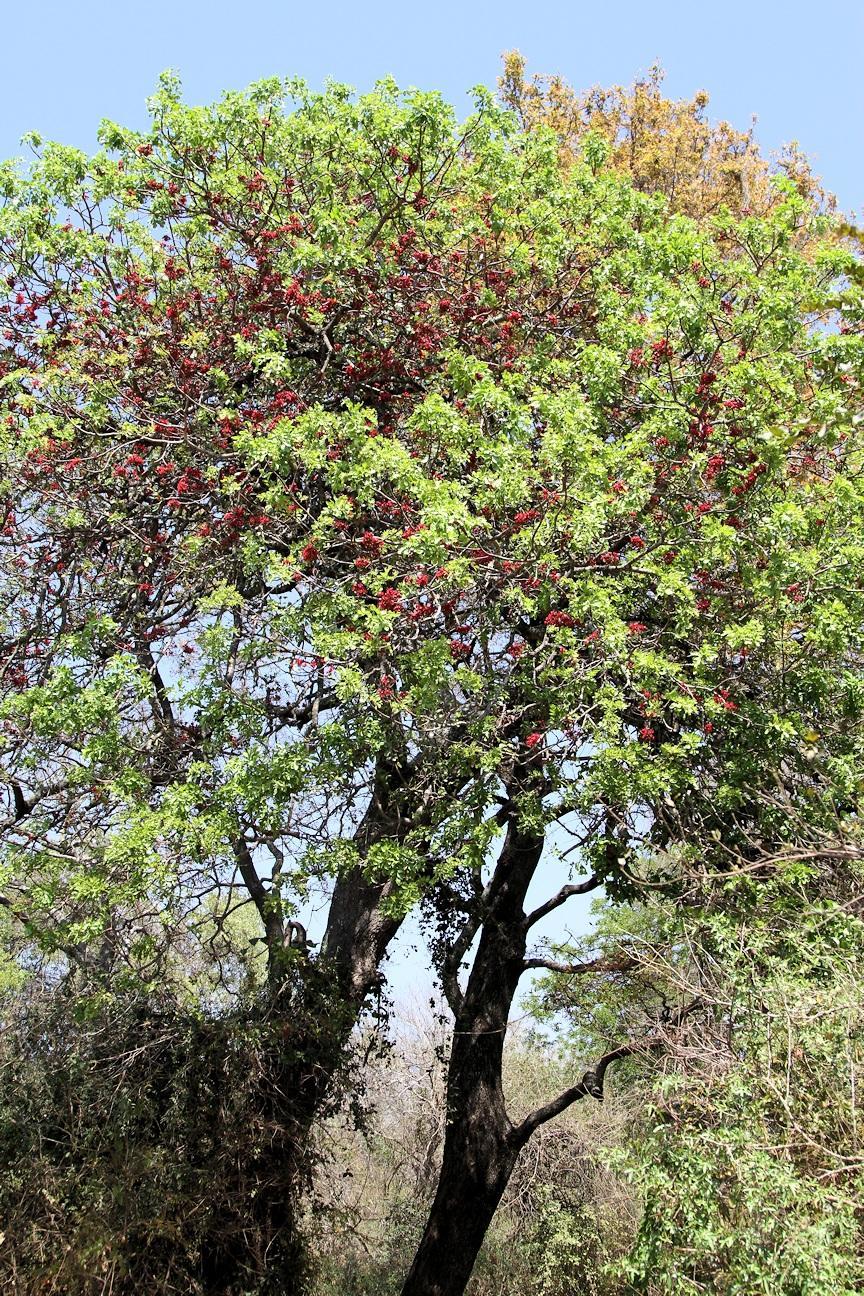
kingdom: Plantae
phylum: Tracheophyta
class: Magnoliopsida
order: Fabales
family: Fabaceae
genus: Schotia
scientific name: Schotia brachypetala
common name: Weeping boer-bean
